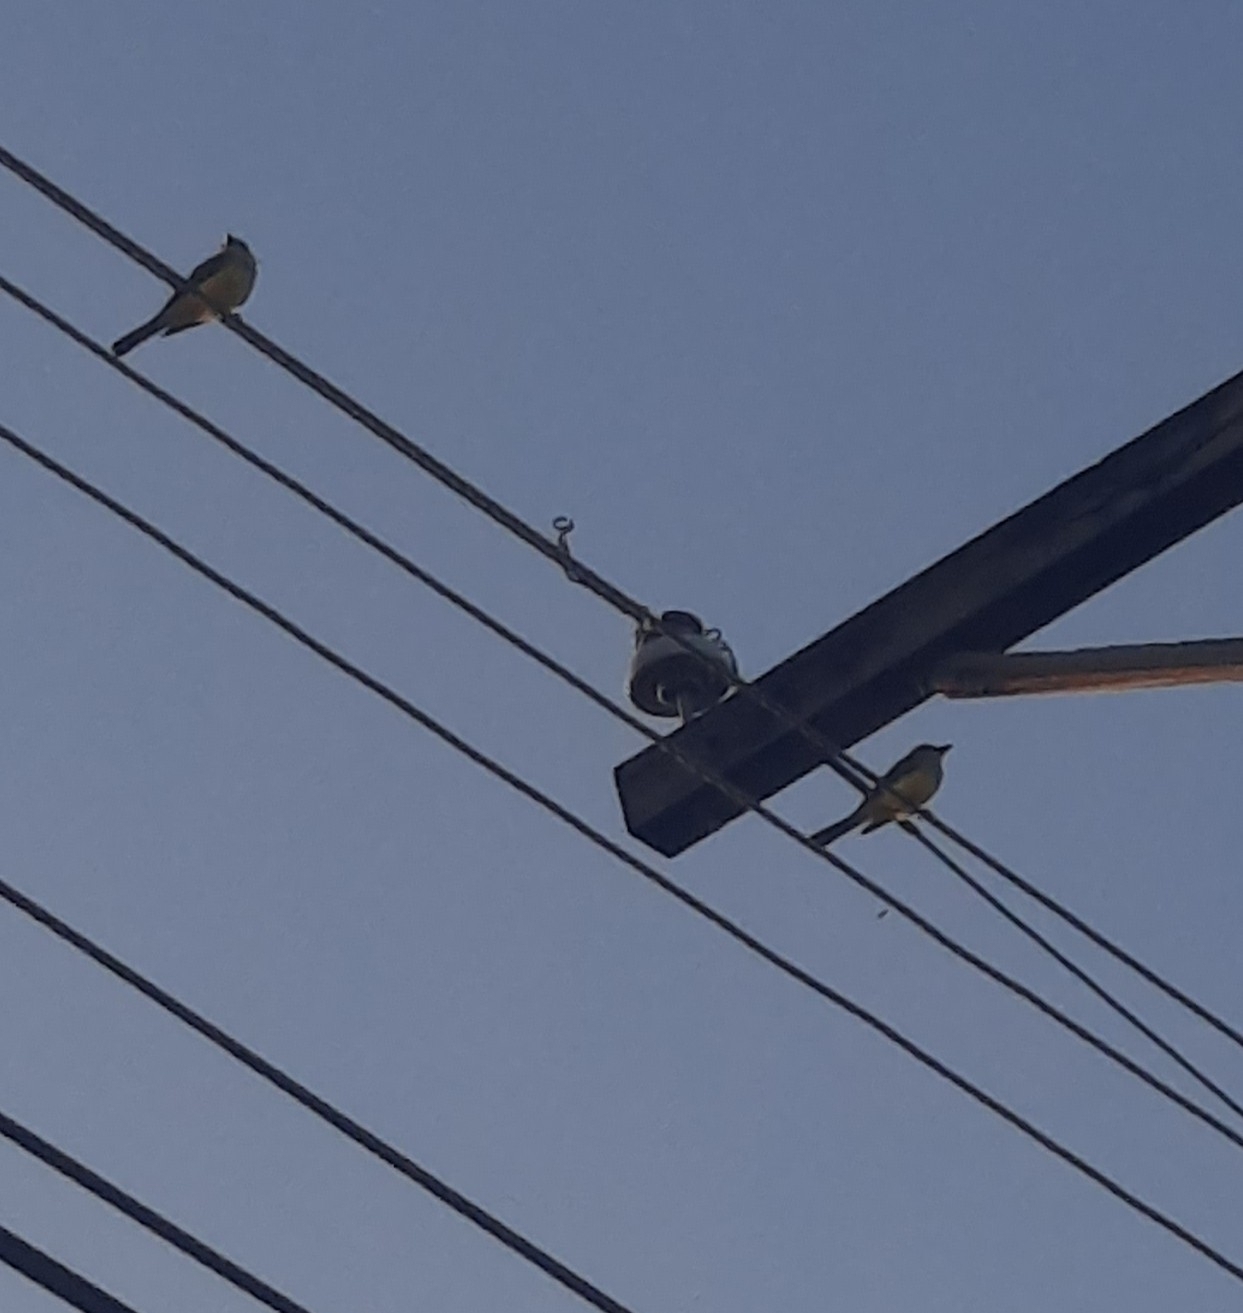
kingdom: Animalia
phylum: Chordata
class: Aves
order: Passeriformes
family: Tyrannidae
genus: Tyrannus
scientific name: Tyrannus melancholicus
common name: Tropical kingbird
